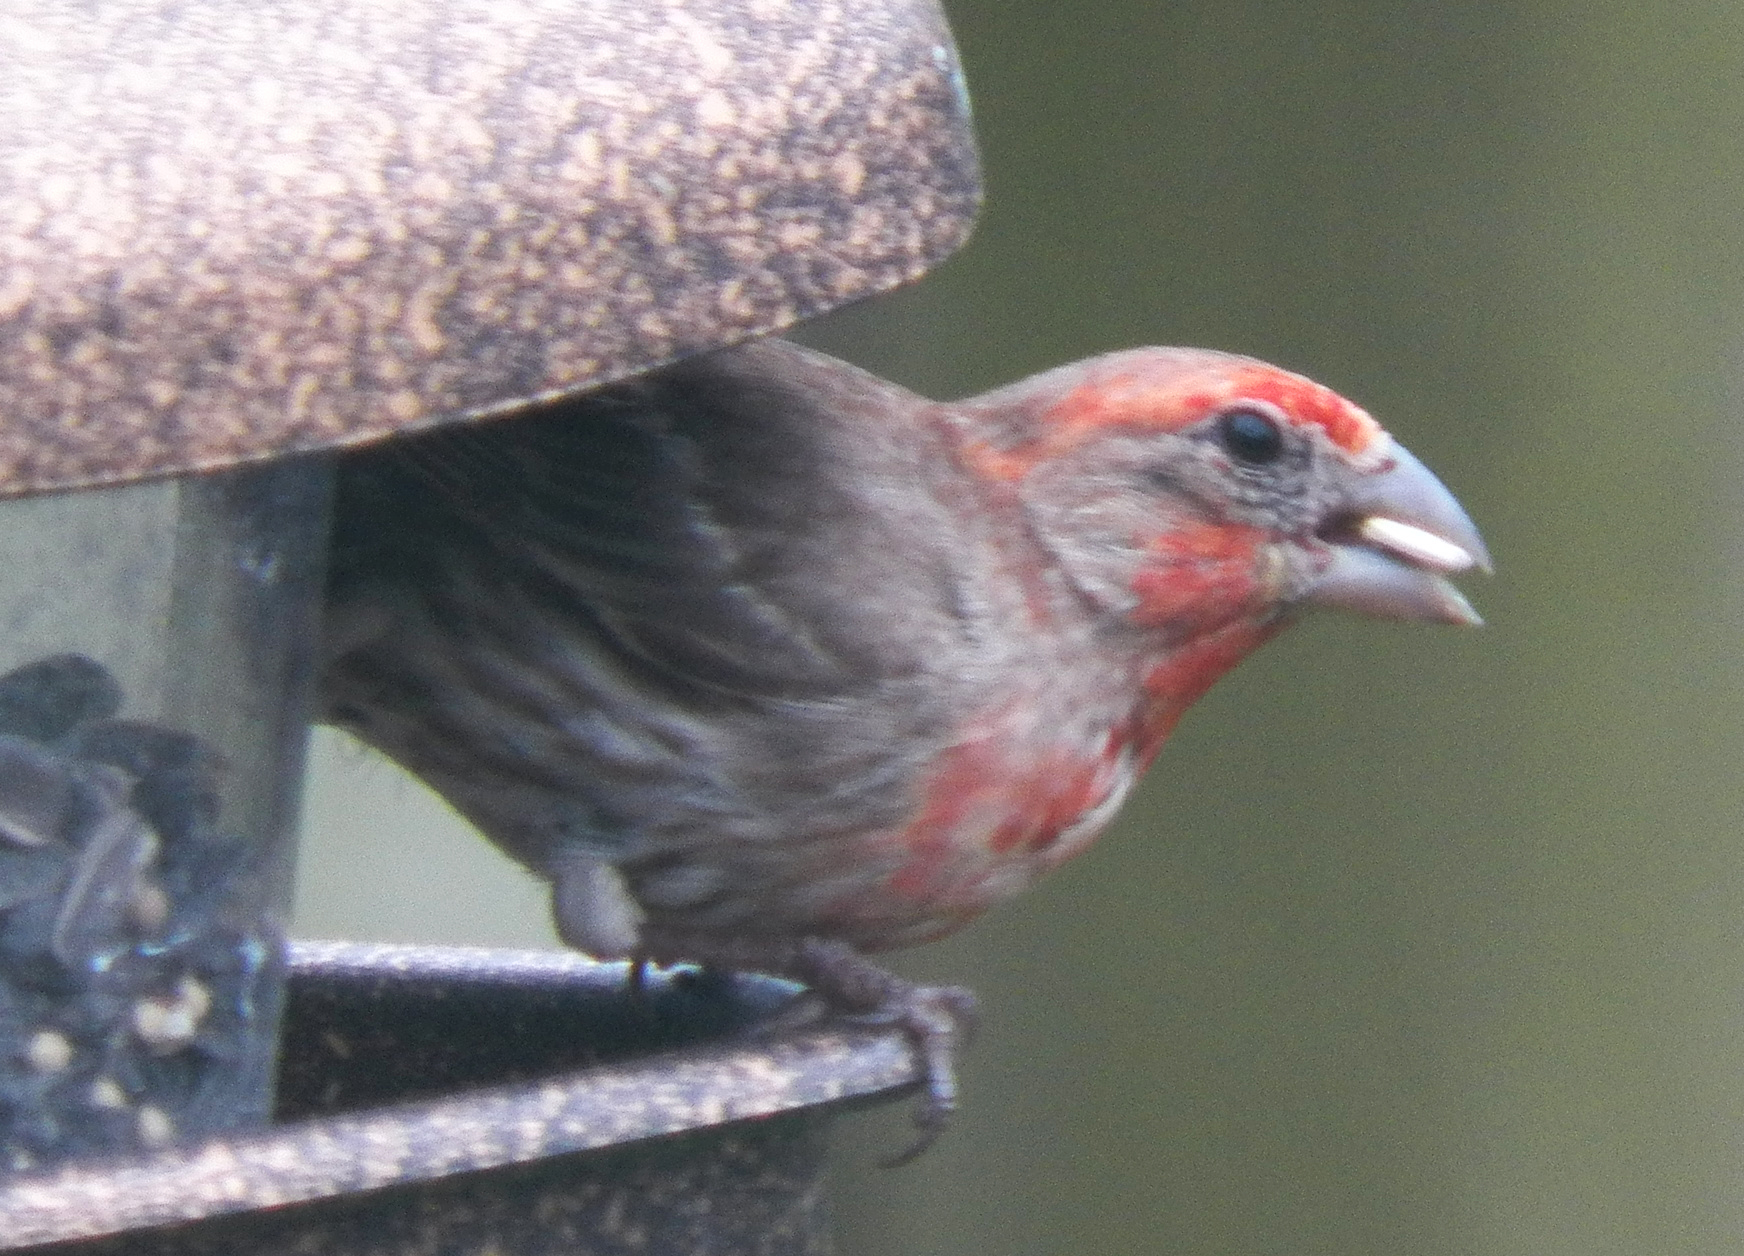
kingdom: Animalia
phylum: Chordata
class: Aves
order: Passeriformes
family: Fringillidae
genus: Haemorhous
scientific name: Haemorhous mexicanus
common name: House finch
